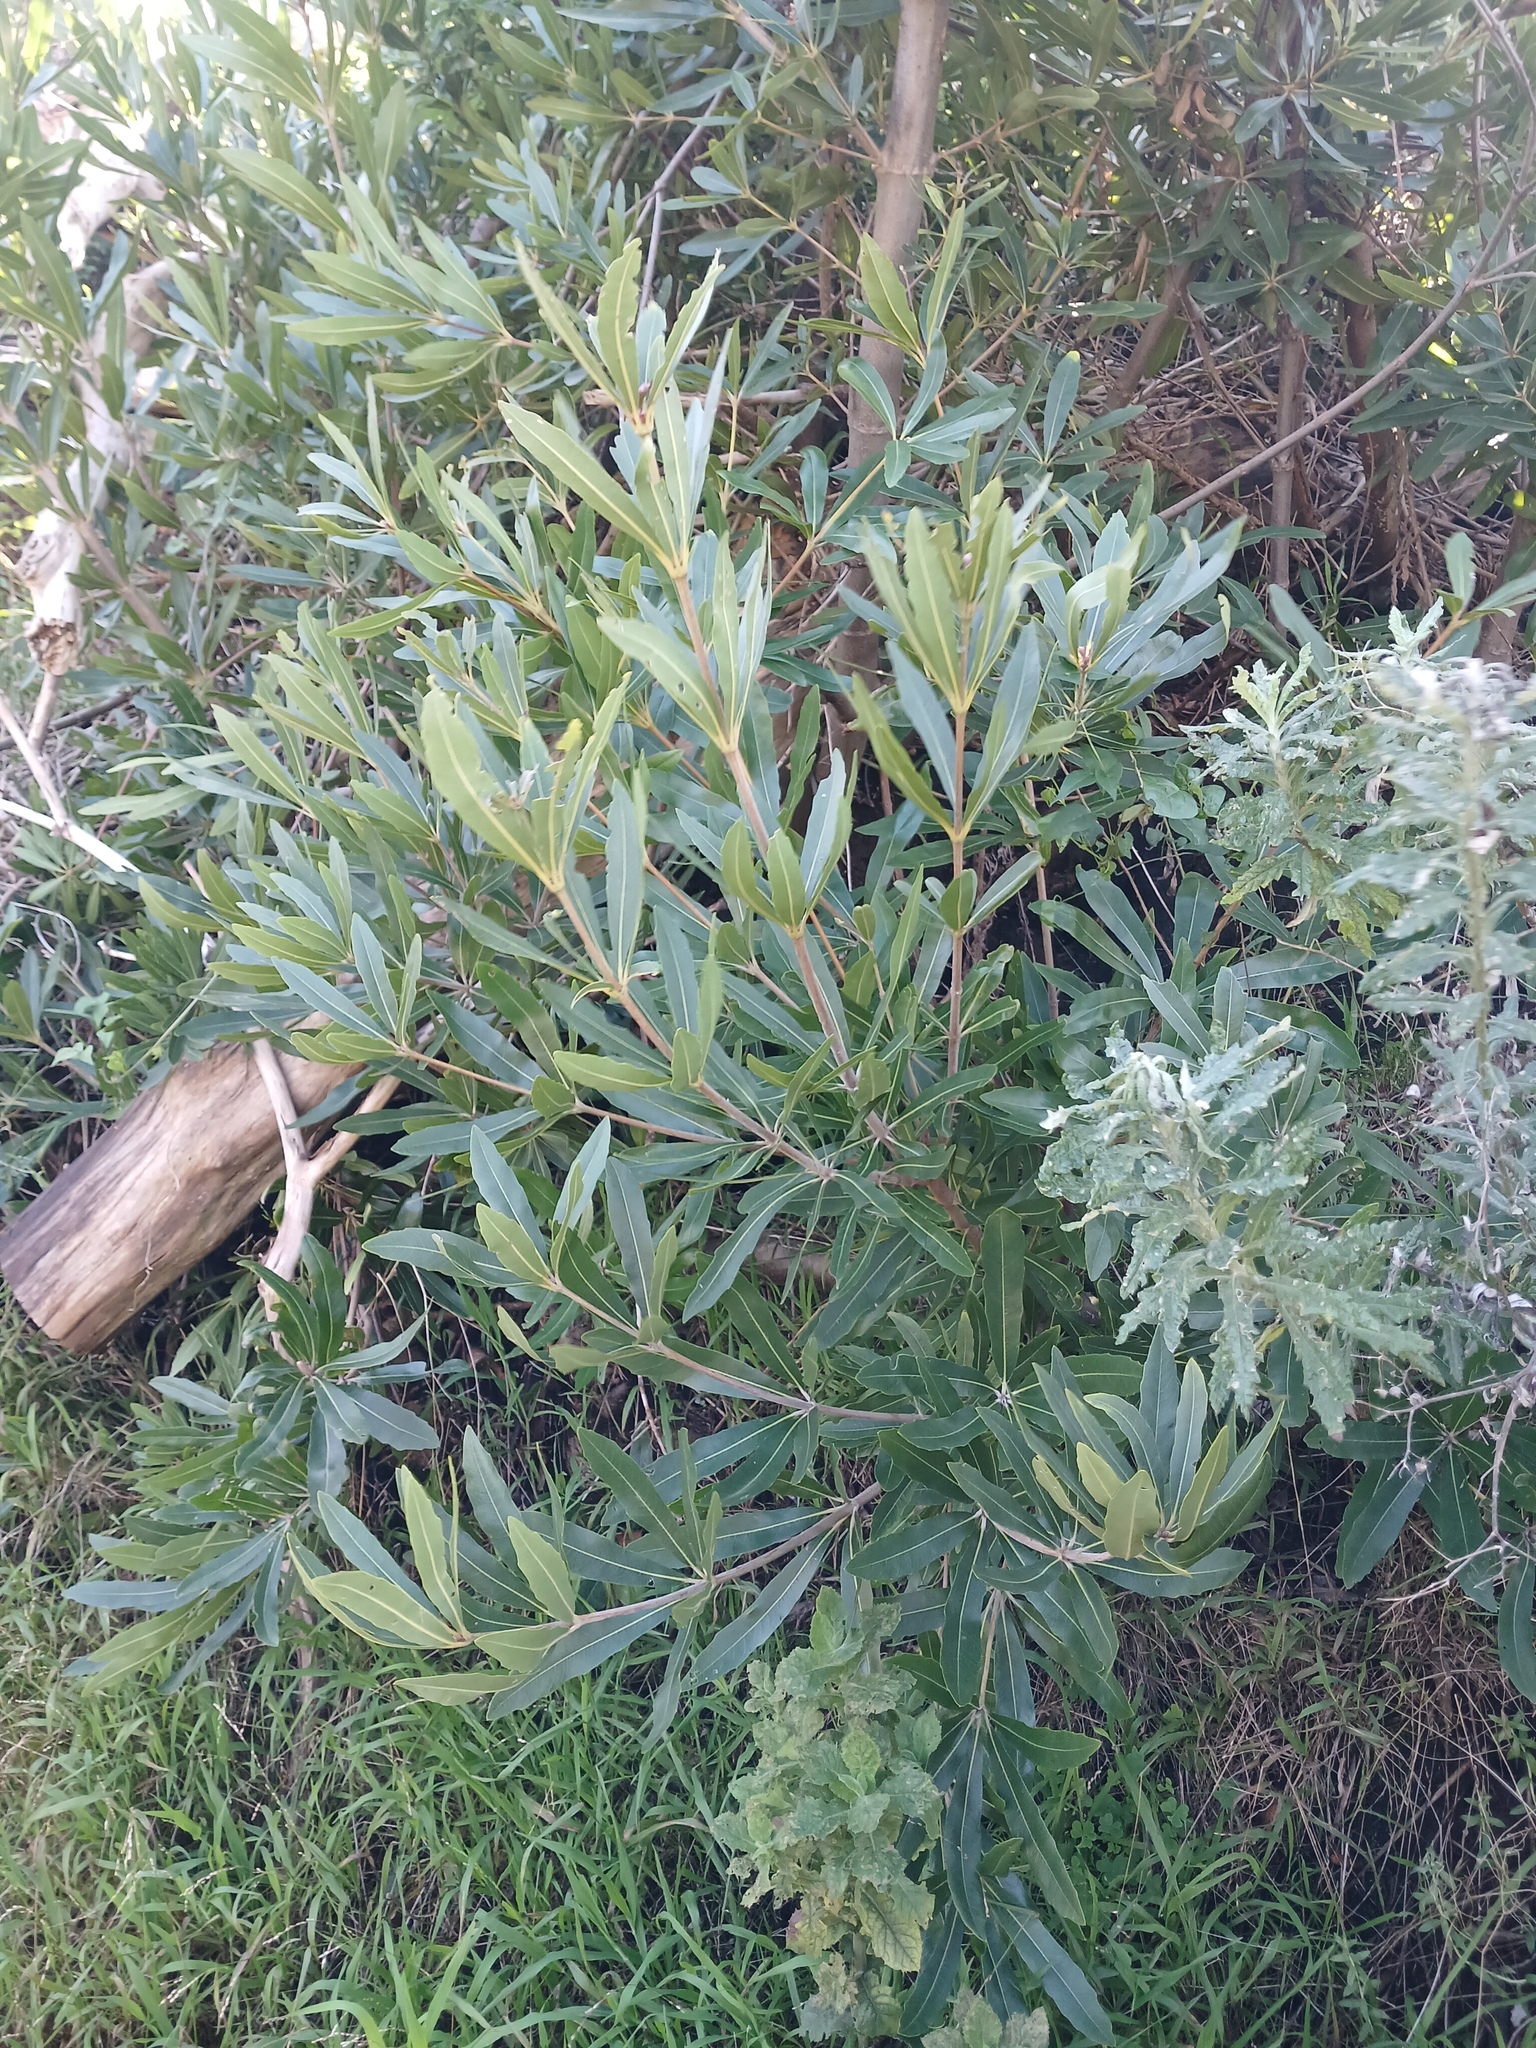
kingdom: Plantae
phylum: Tracheophyta
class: Magnoliopsida
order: Proteales
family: Proteaceae
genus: Brabejum
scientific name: Brabejum stellatifolium
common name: Wild almond
